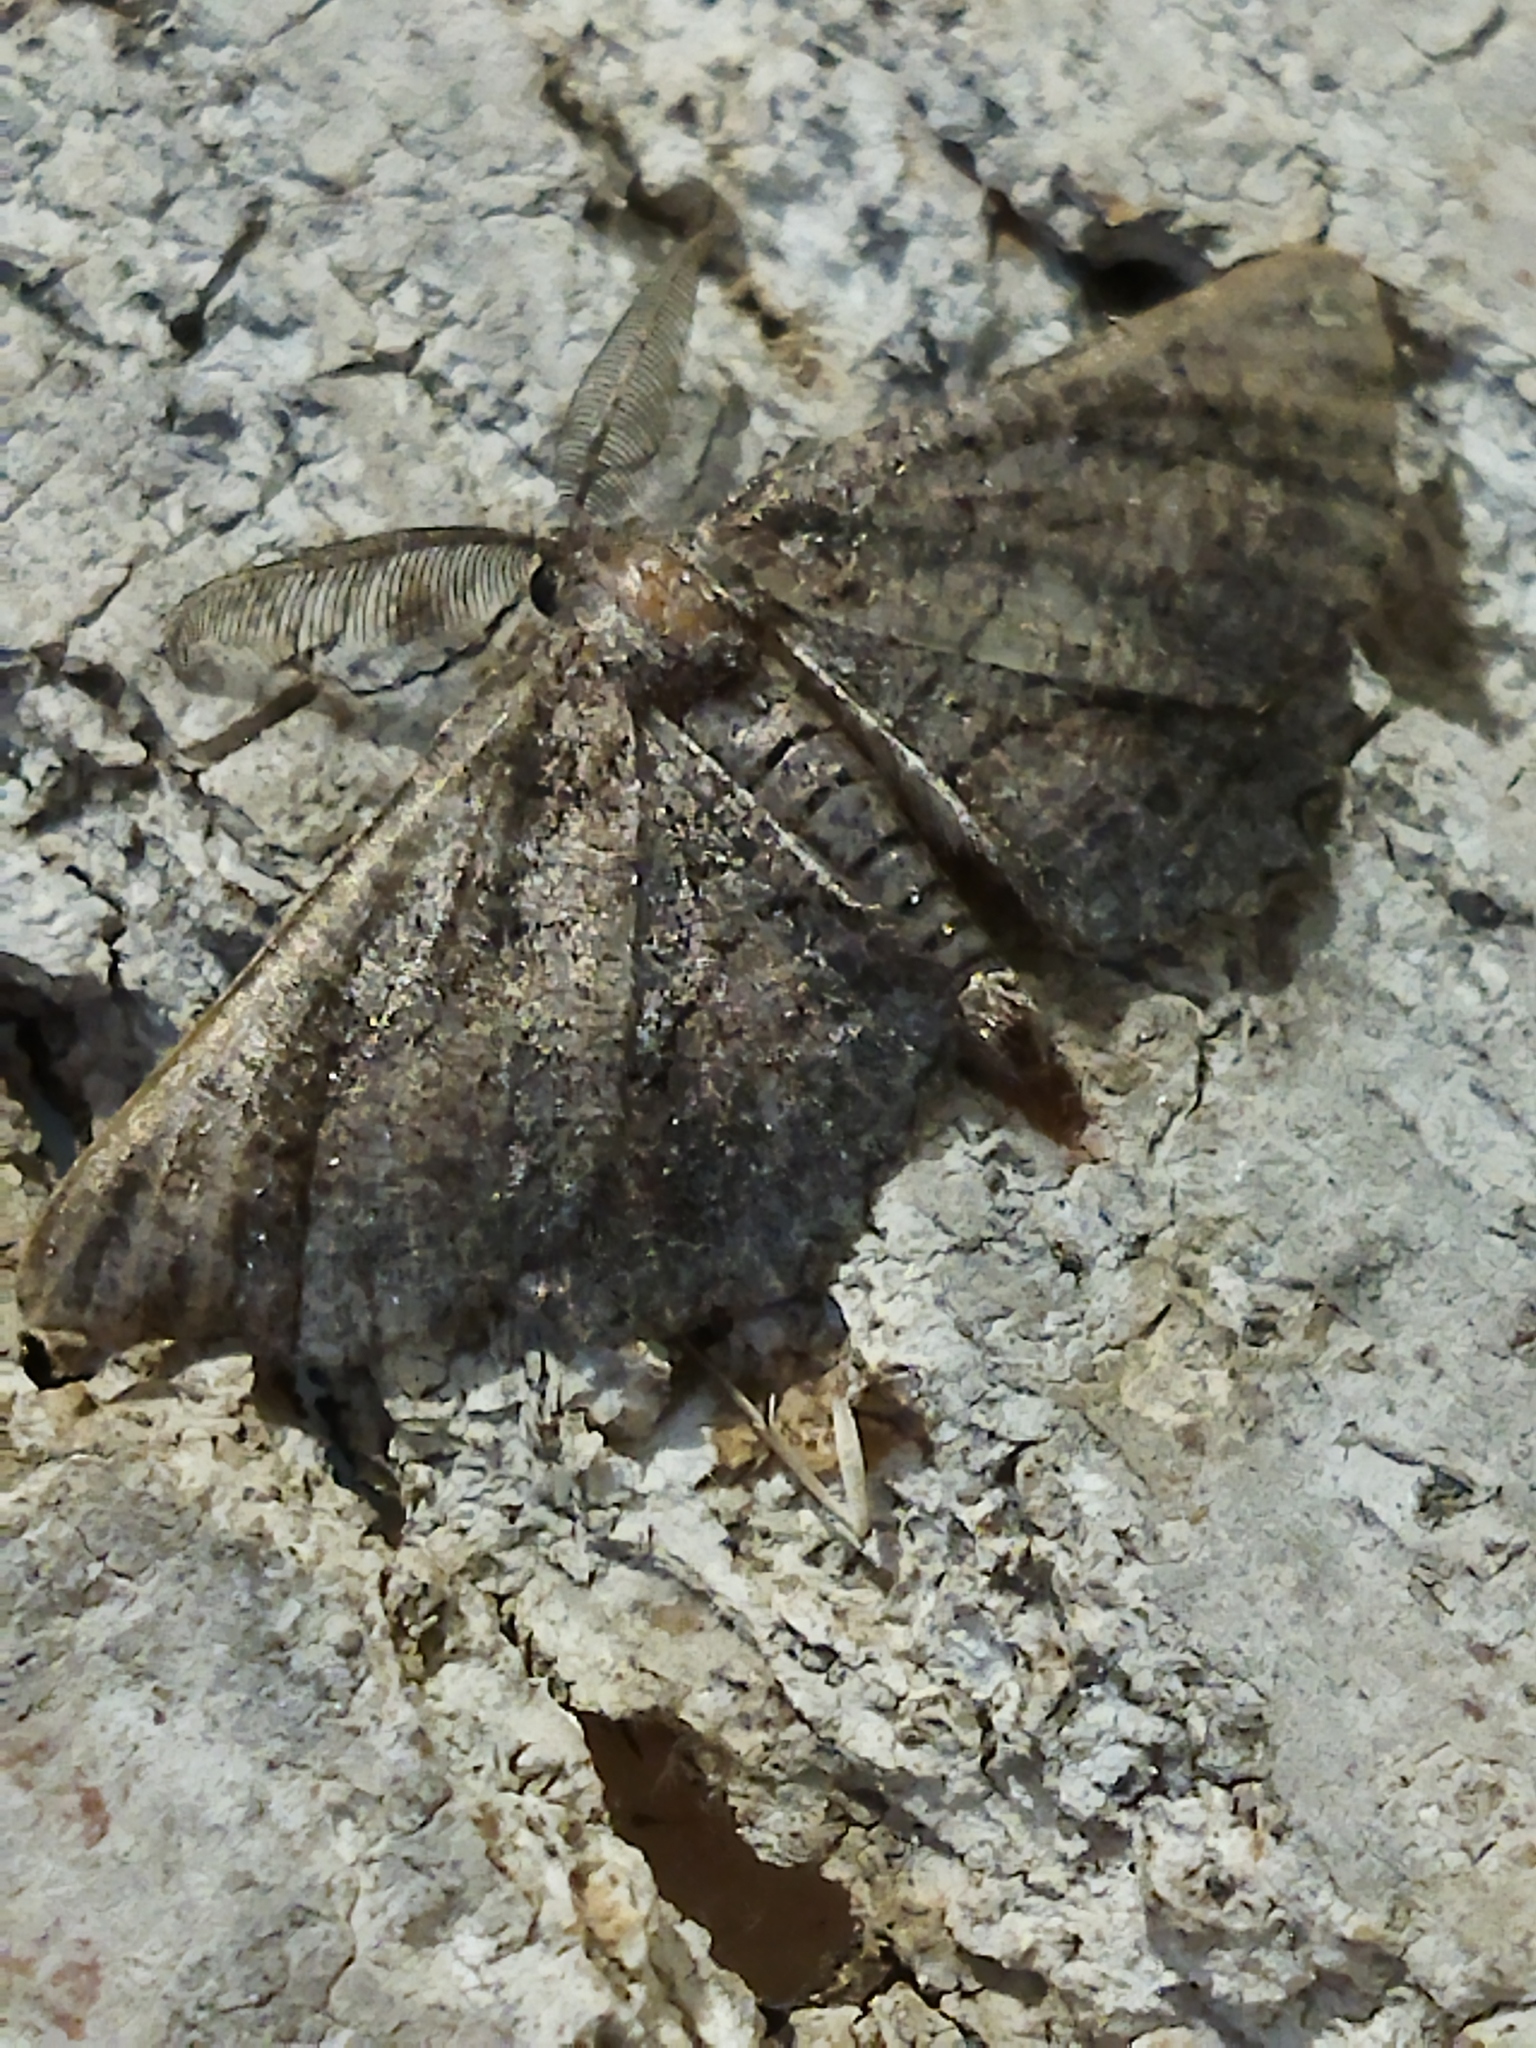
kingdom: Animalia
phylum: Arthropoda
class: Insecta
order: Lepidoptera
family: Geometridae
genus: Nychiodes
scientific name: Nychiodes waltheri
